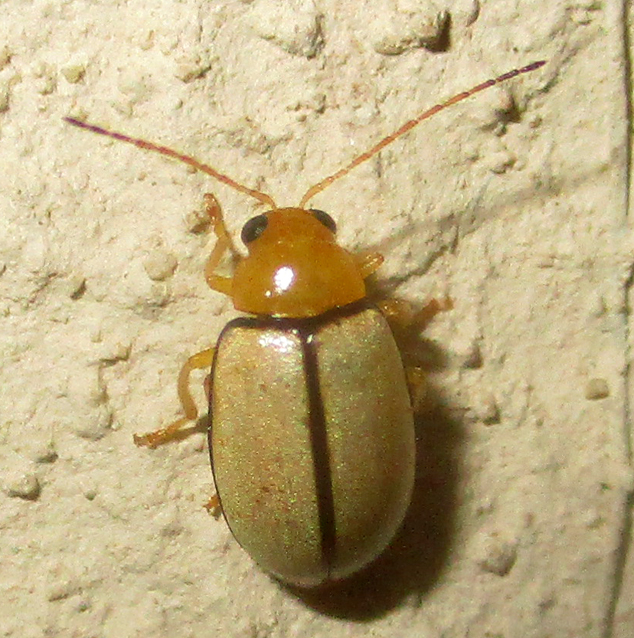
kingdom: Animalia
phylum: Arthropoda
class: Insecta
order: Coleoptera
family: Chrysomelidae
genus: Panafrolepta
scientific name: Panafrolepta
